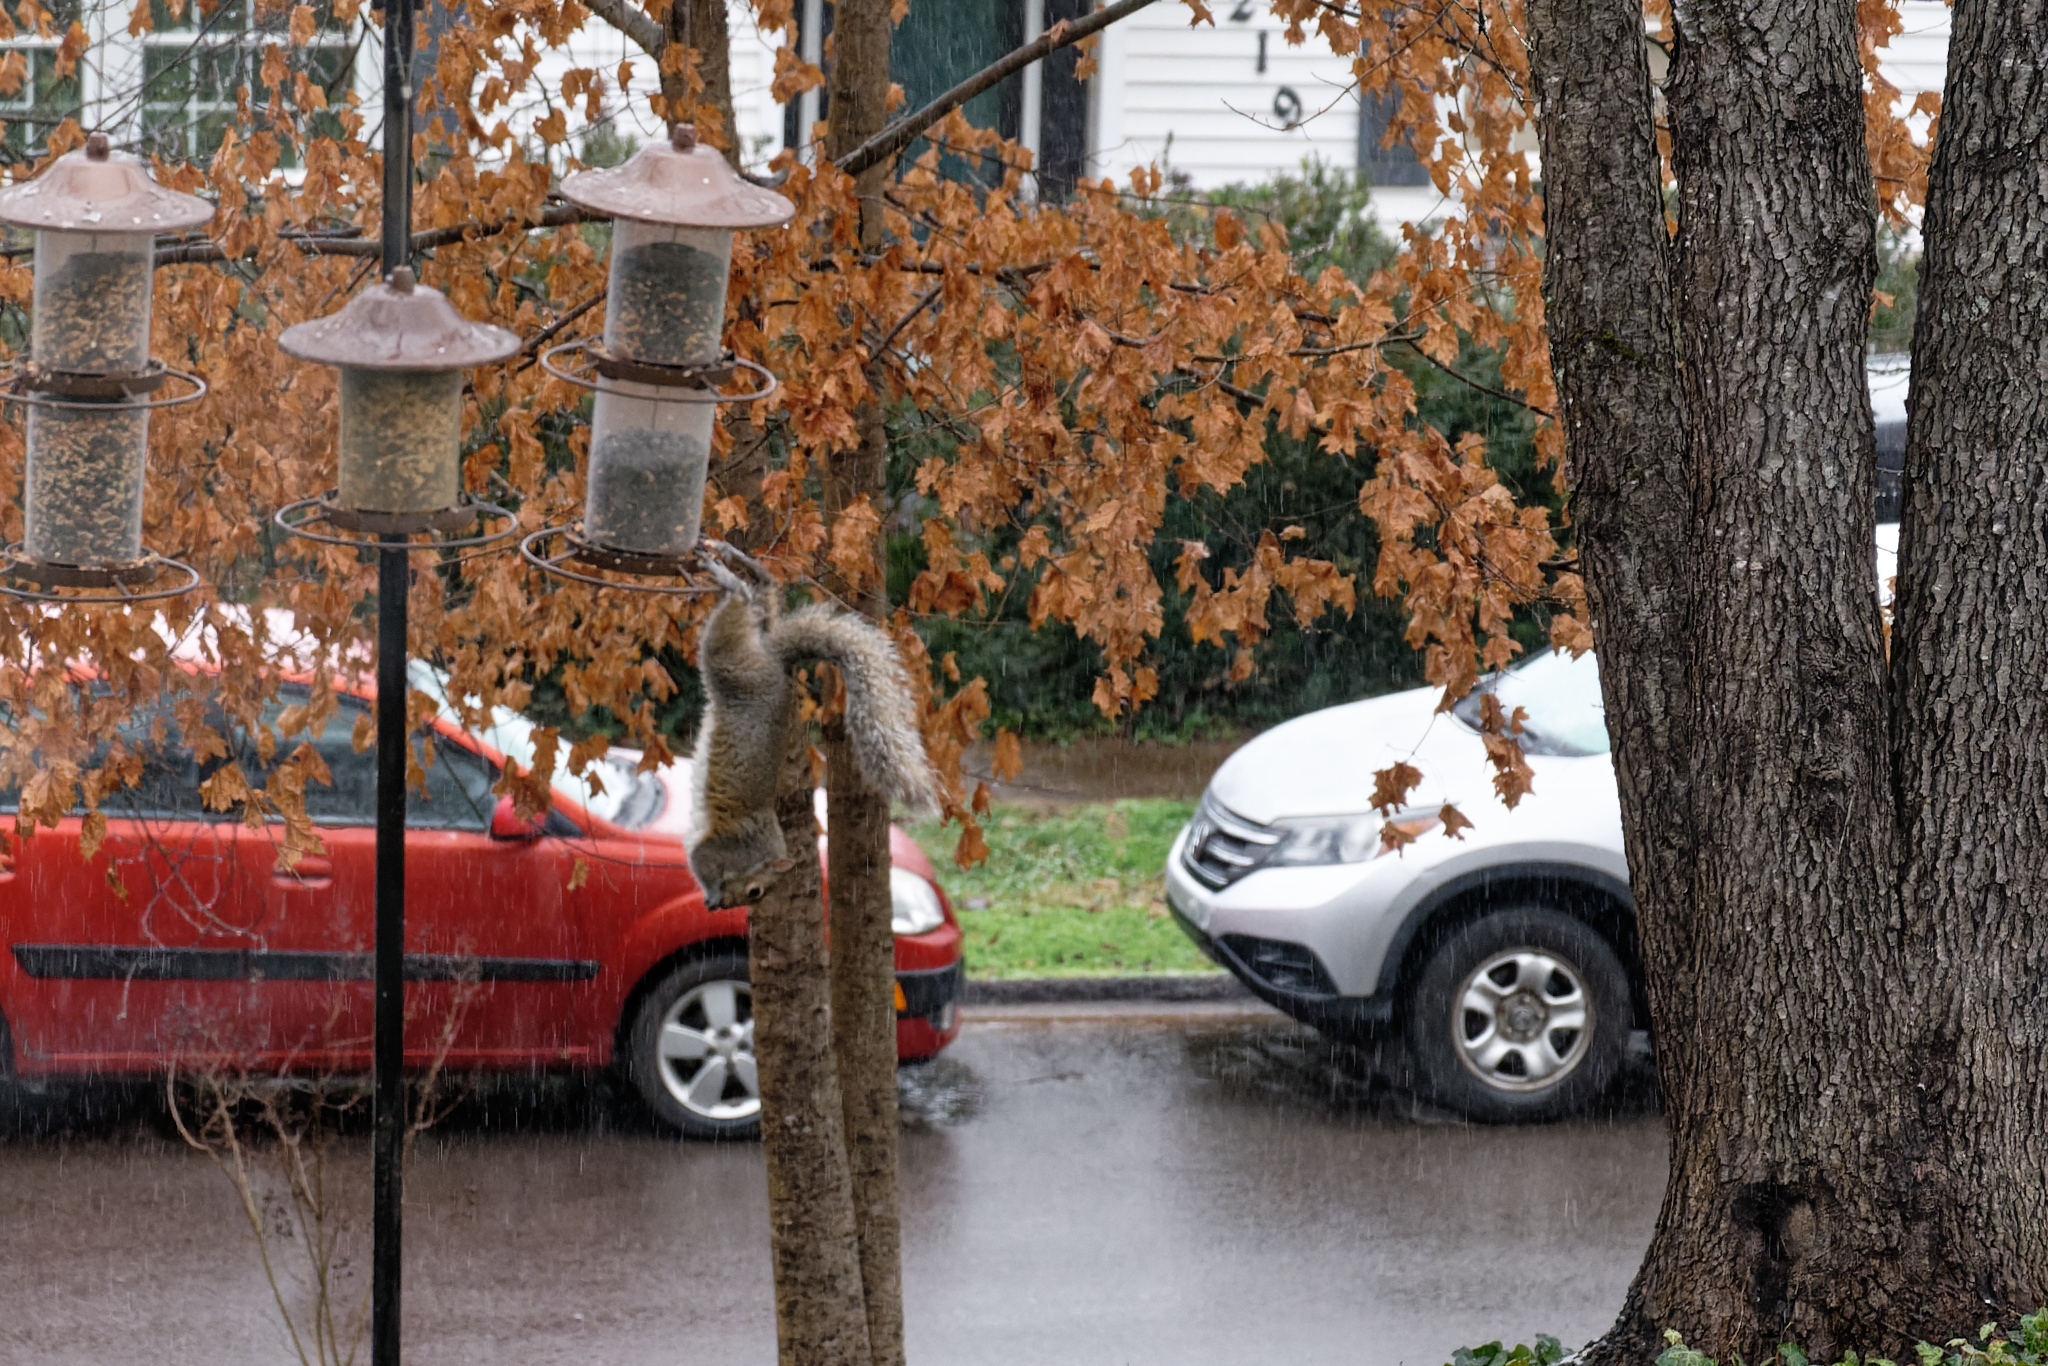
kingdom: Animalia
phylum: Chordata
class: Mammalia
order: Rodentia
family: Sciuridae
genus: Sciurus
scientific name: Sciurus carolinensis
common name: Eastern gray squirrel
